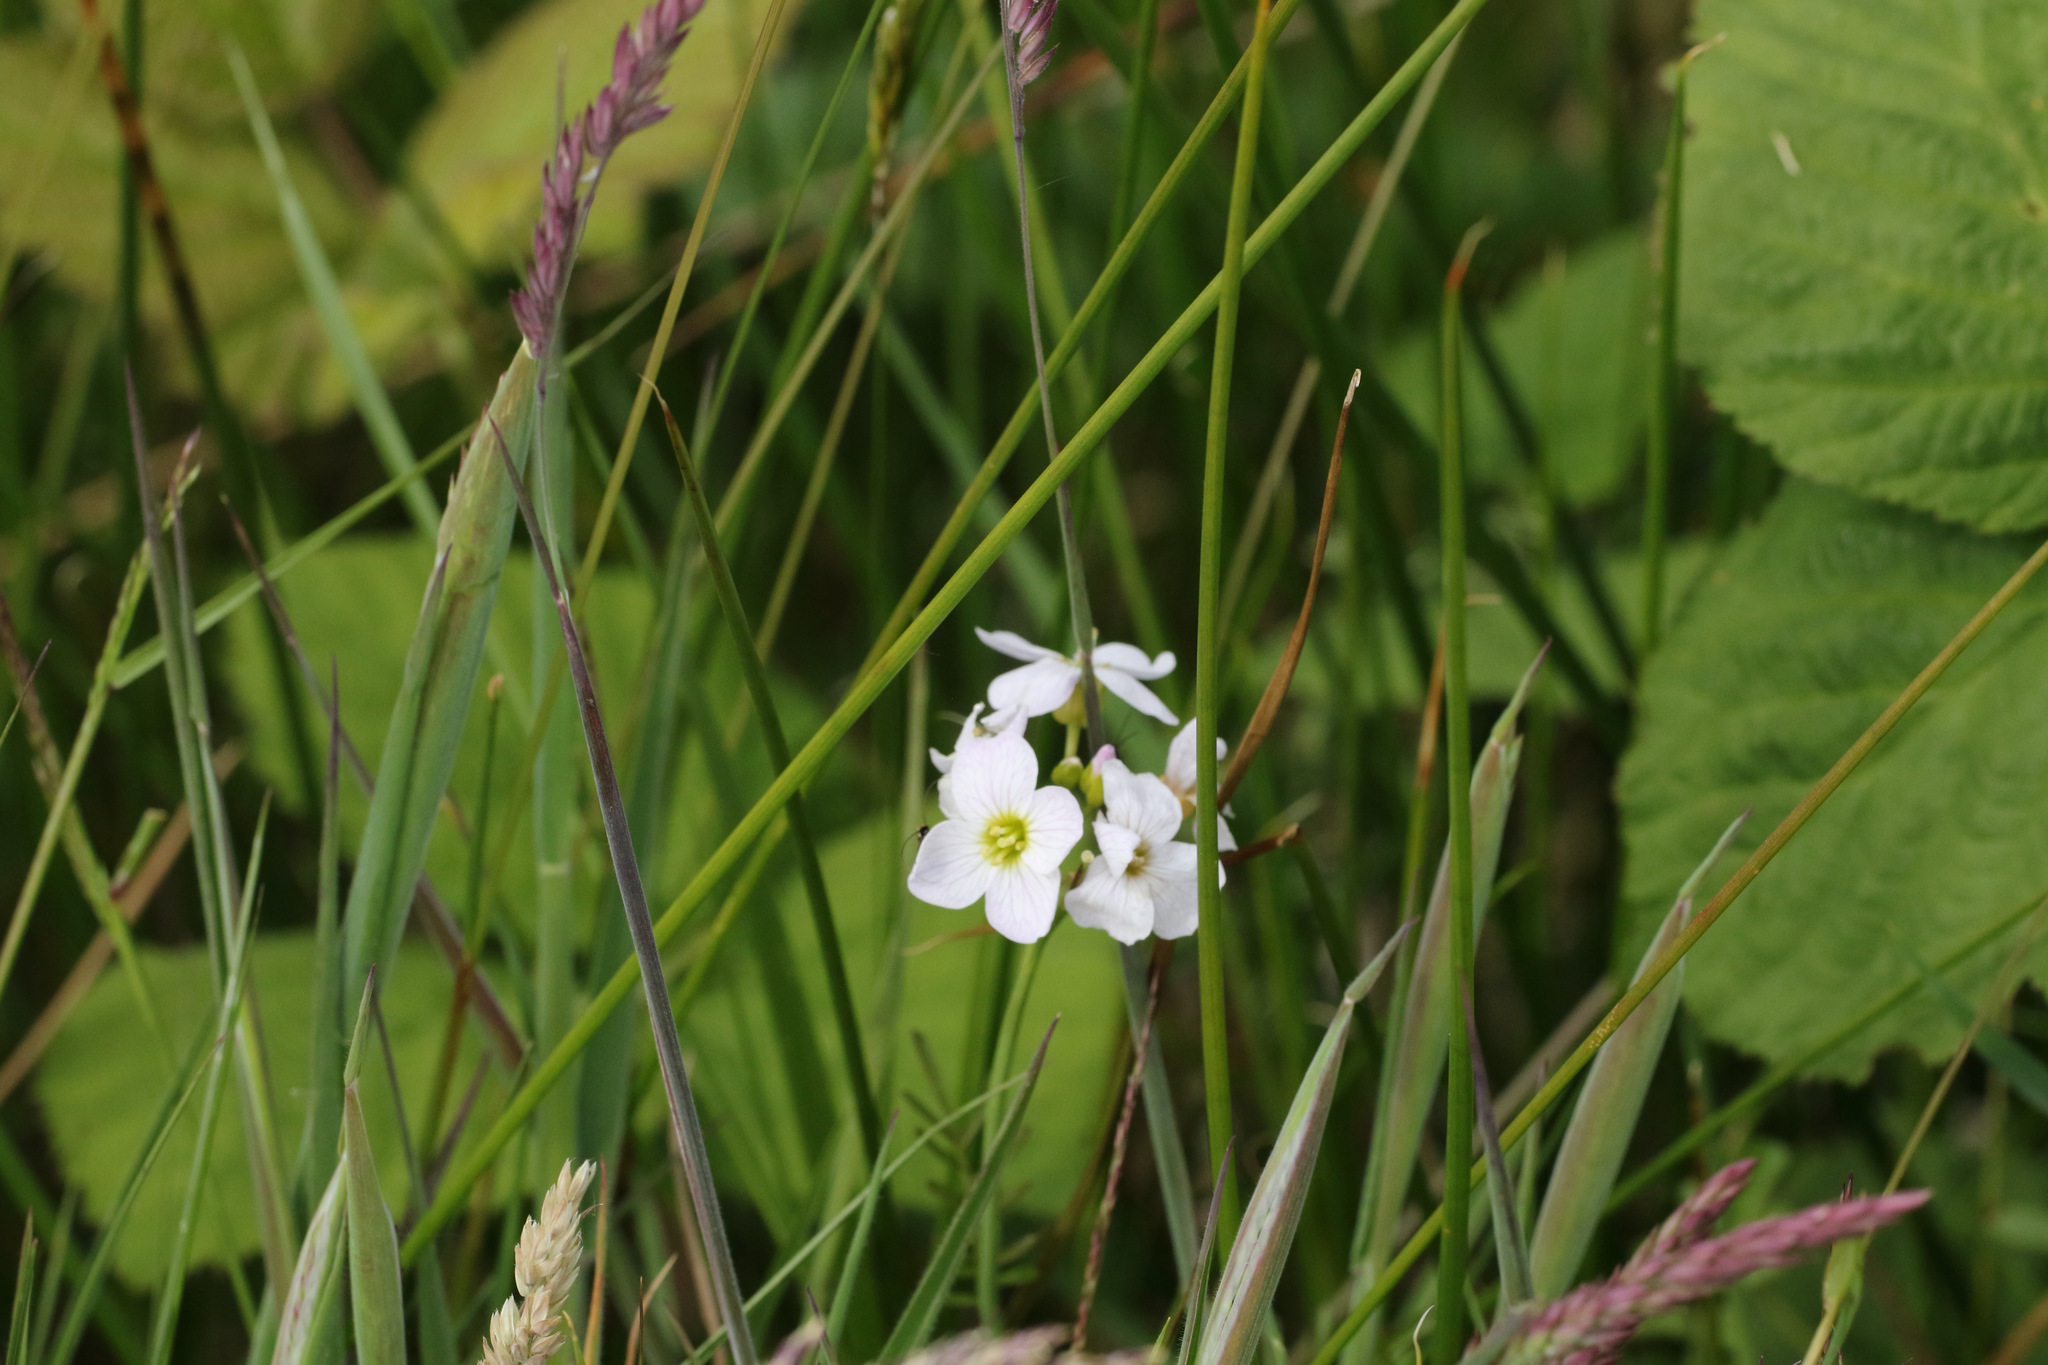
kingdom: Plantae
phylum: Tracheophyta
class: Magnoliopsida
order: Brassicales
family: Brassicaceae
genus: Cardamine
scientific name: Cardamine pratensis
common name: Cuckoo flower
